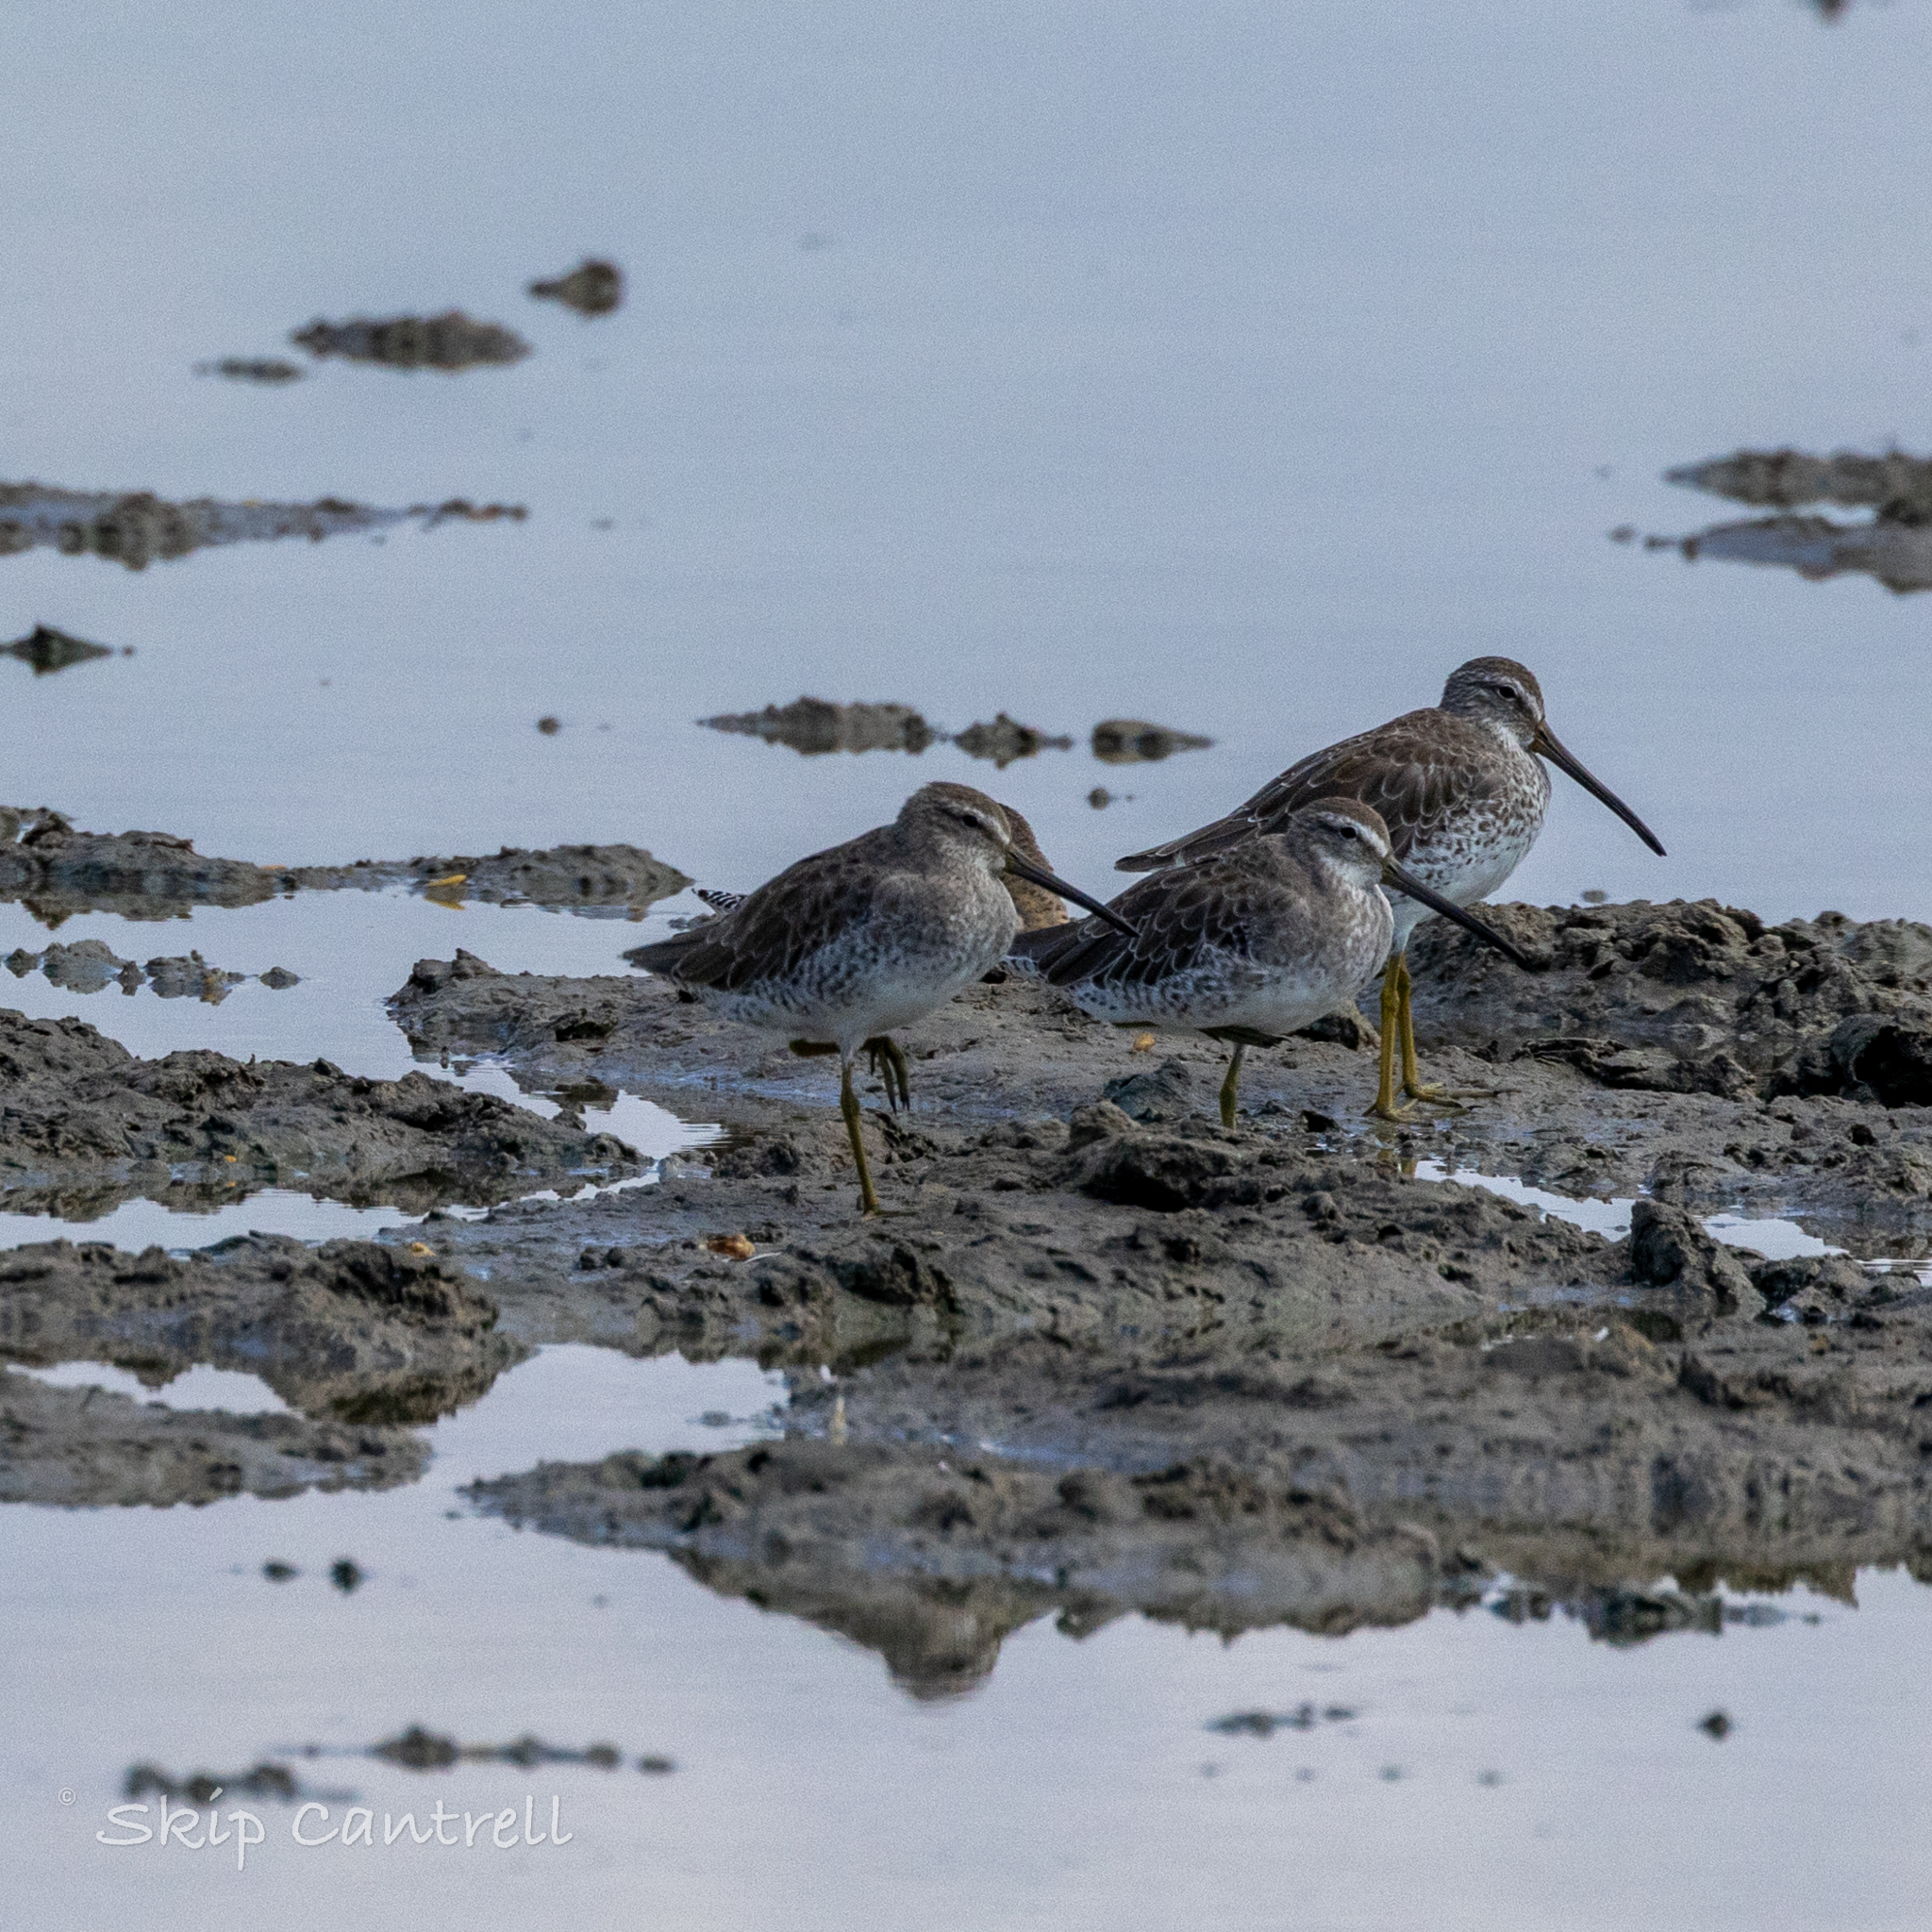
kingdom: Animalia
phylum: Chordata
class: Aves
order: Charadriiformes
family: Scolopacidae
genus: Limnodromus
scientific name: Limnodromus griseus
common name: Short-billed dowitcher
